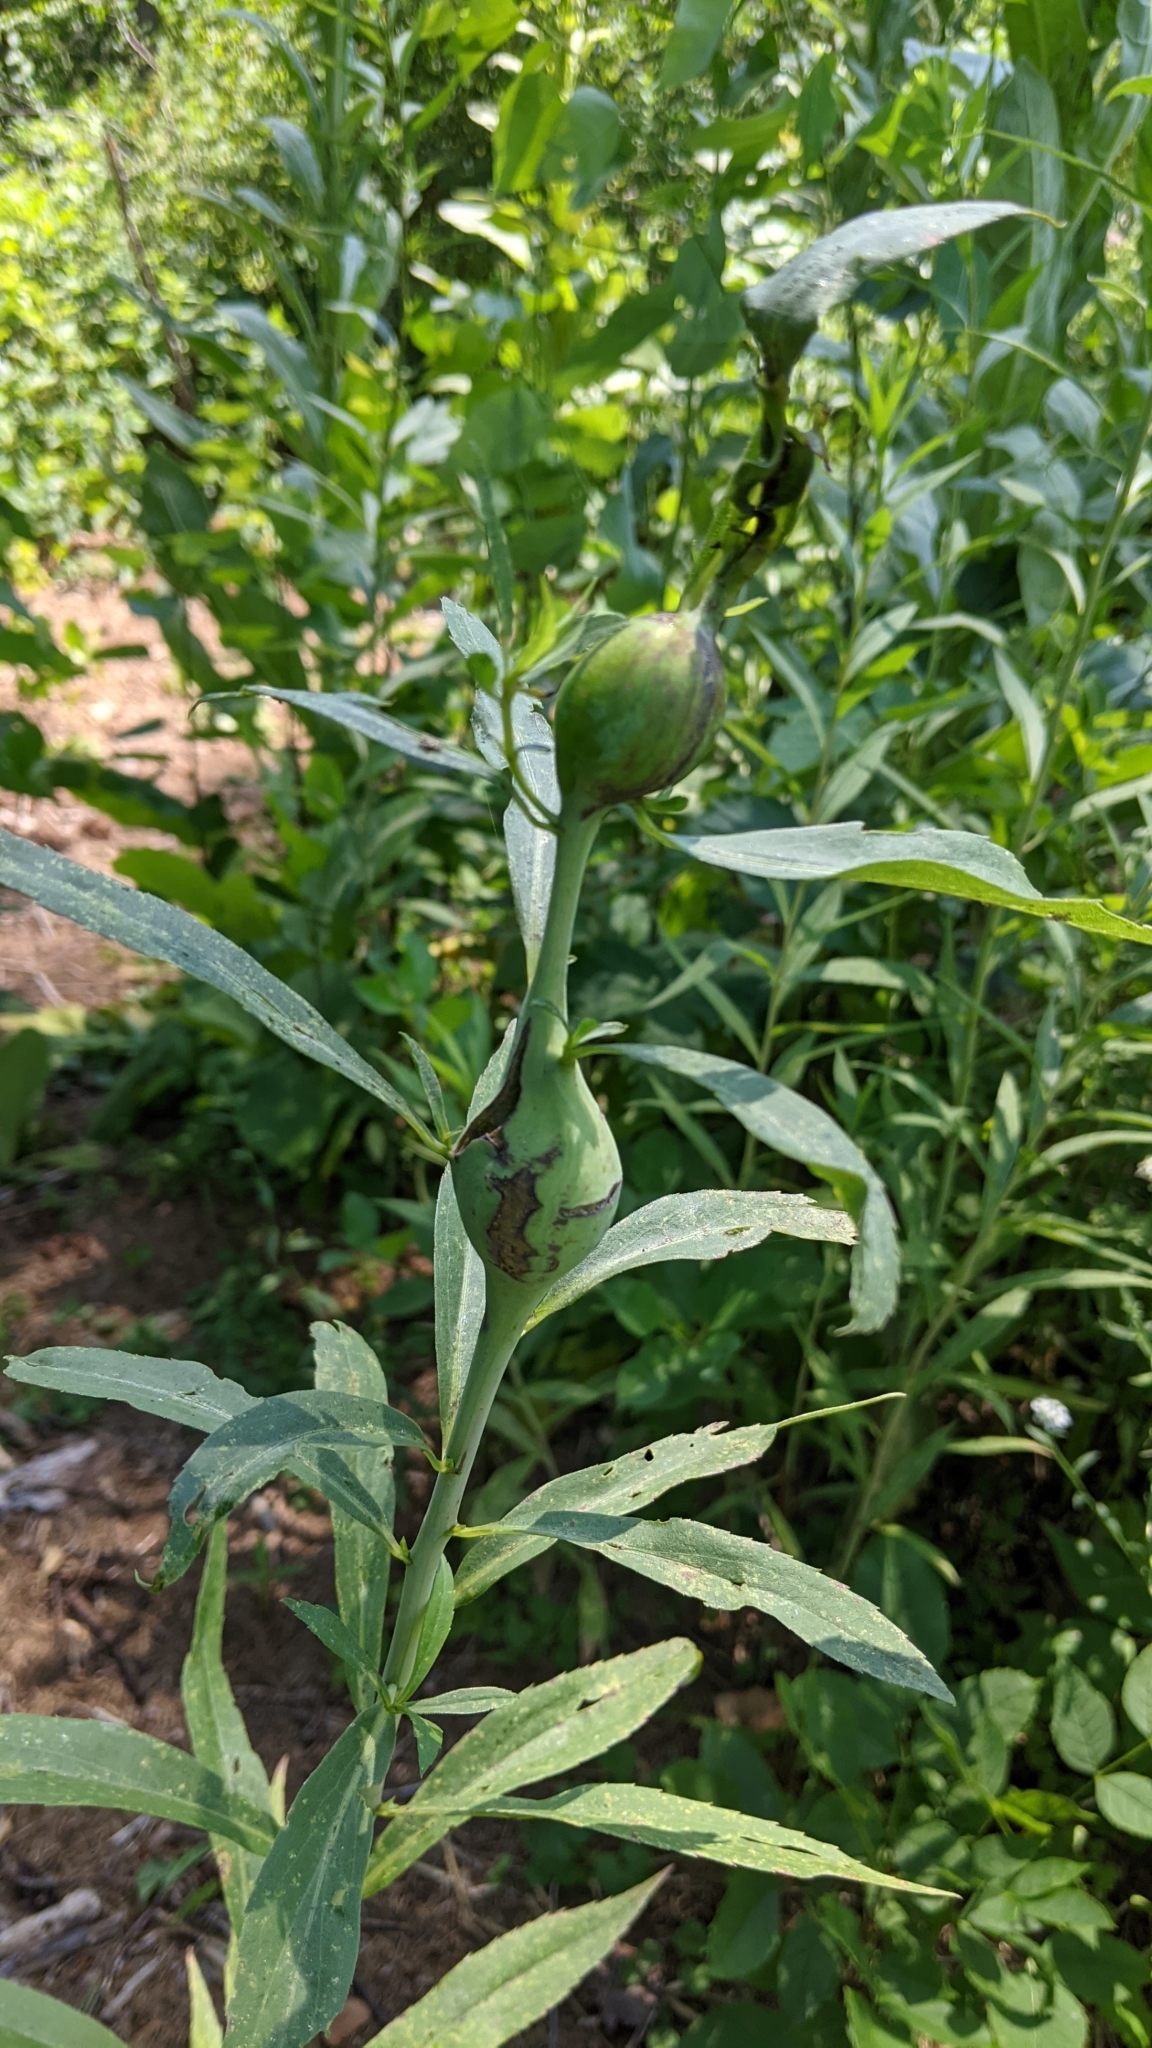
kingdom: Animalia
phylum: Arthropoda
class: Insecta
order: Diptera
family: Tephritidae
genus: Eurosta
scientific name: Eurosta solidaginis
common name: Goldenrod gall fly
